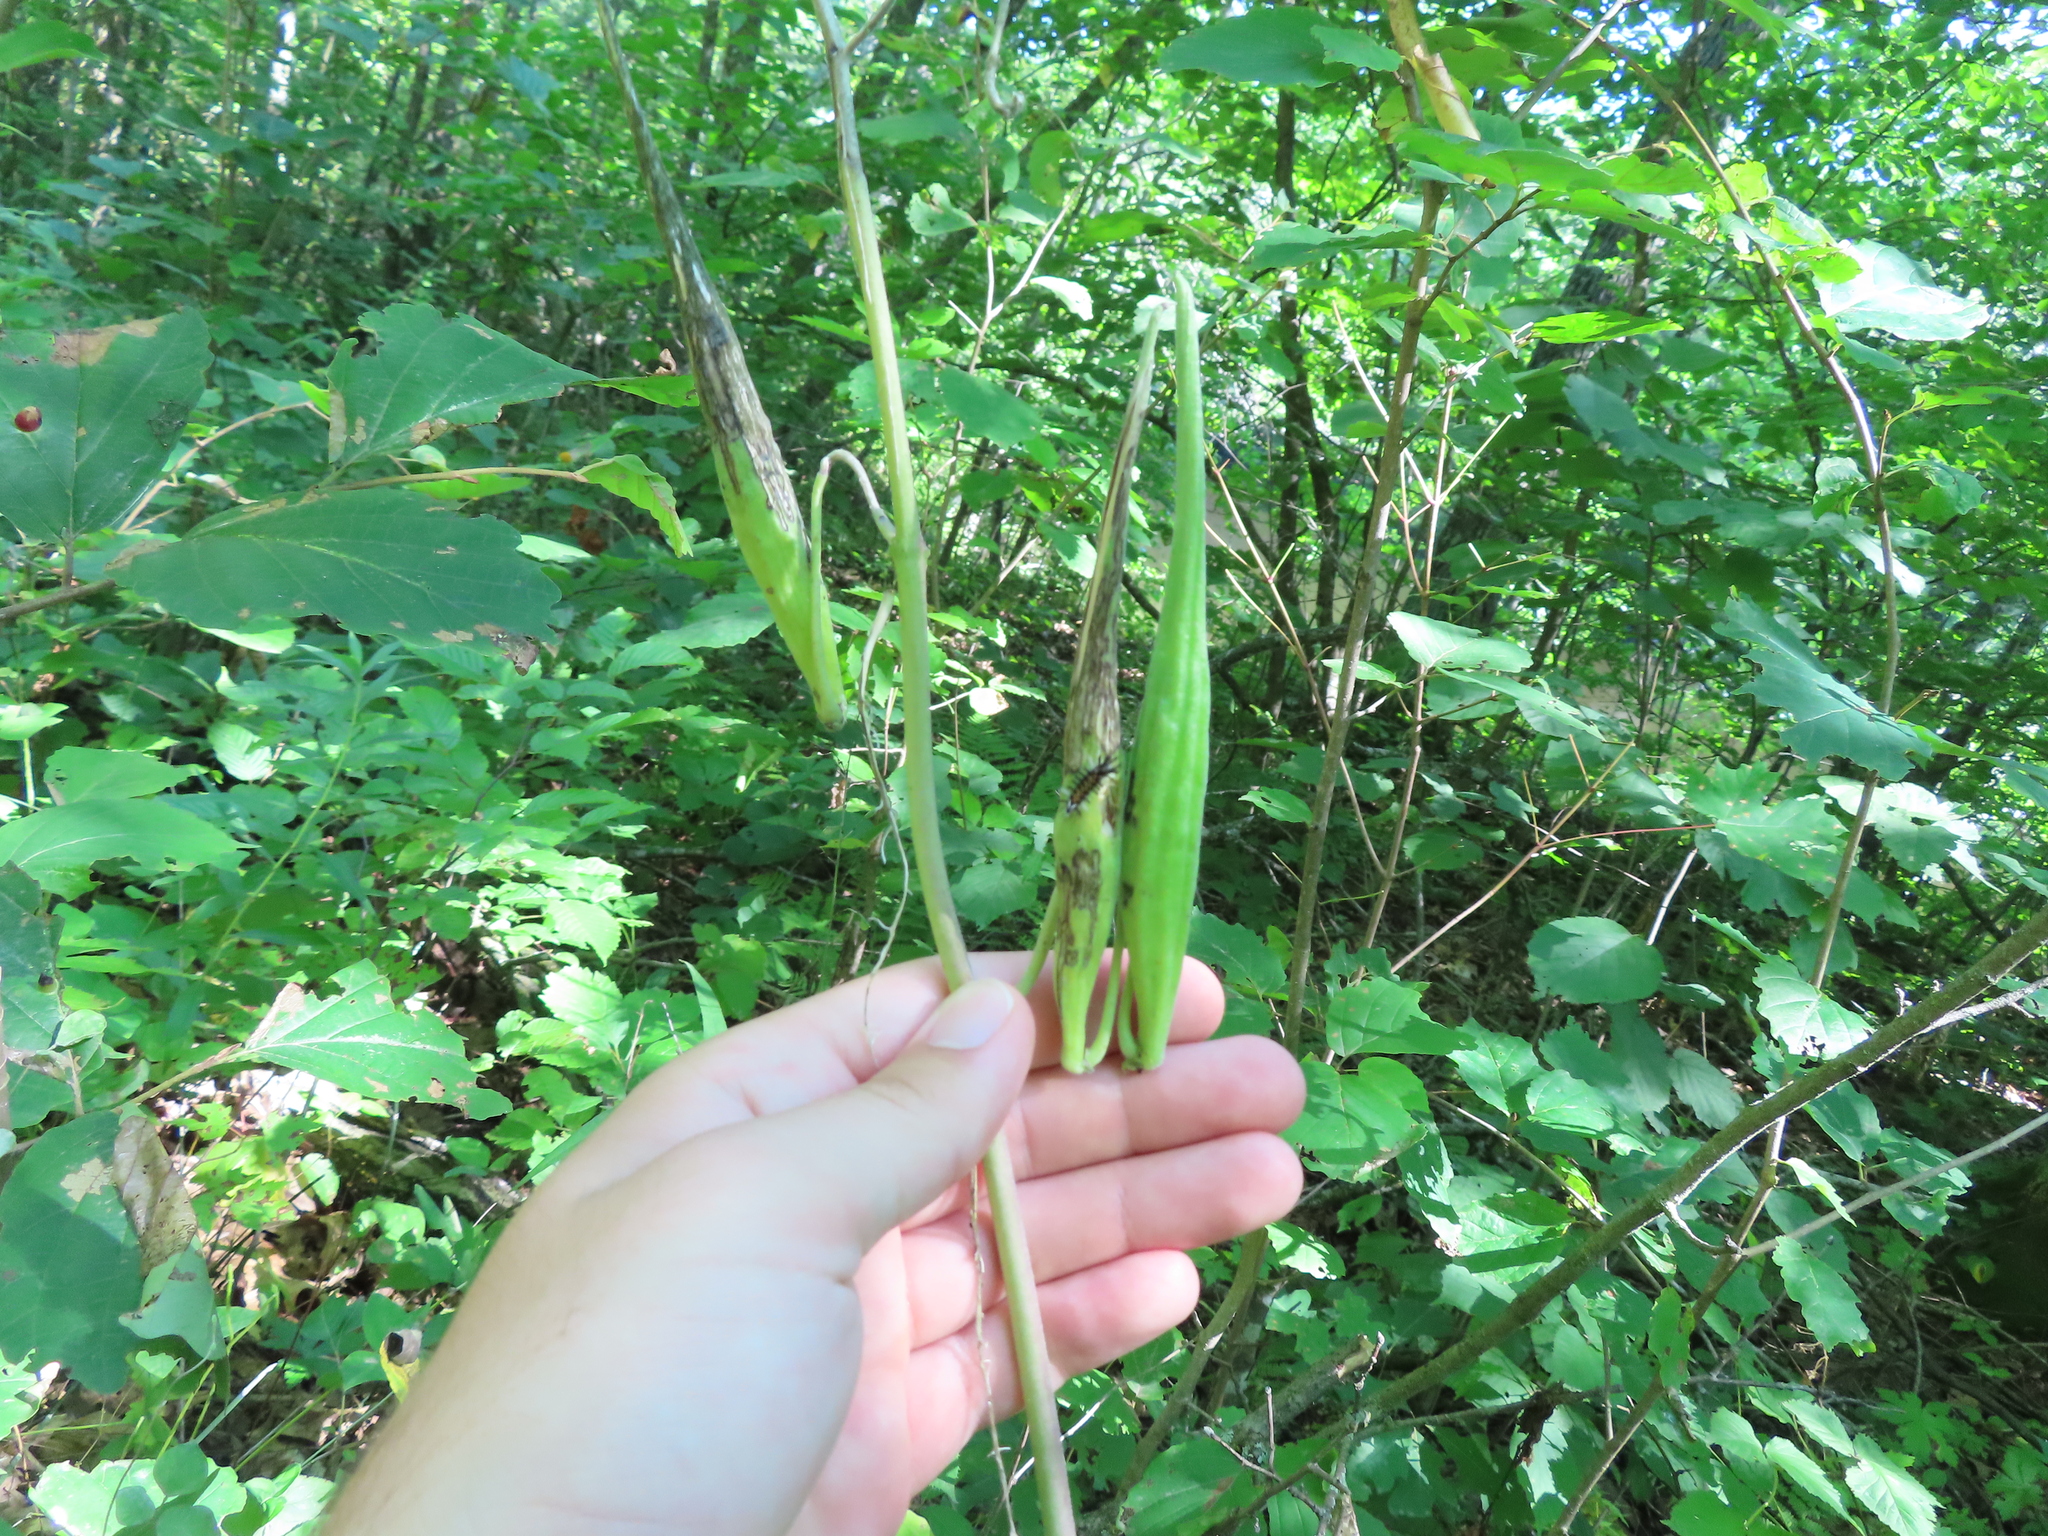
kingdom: Plantae
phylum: Tracheophyta
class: Magnoliopsida
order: Gentianales
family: Apocynaceae
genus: Asclepias
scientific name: Asclepias exaltata
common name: Poke milkweed
